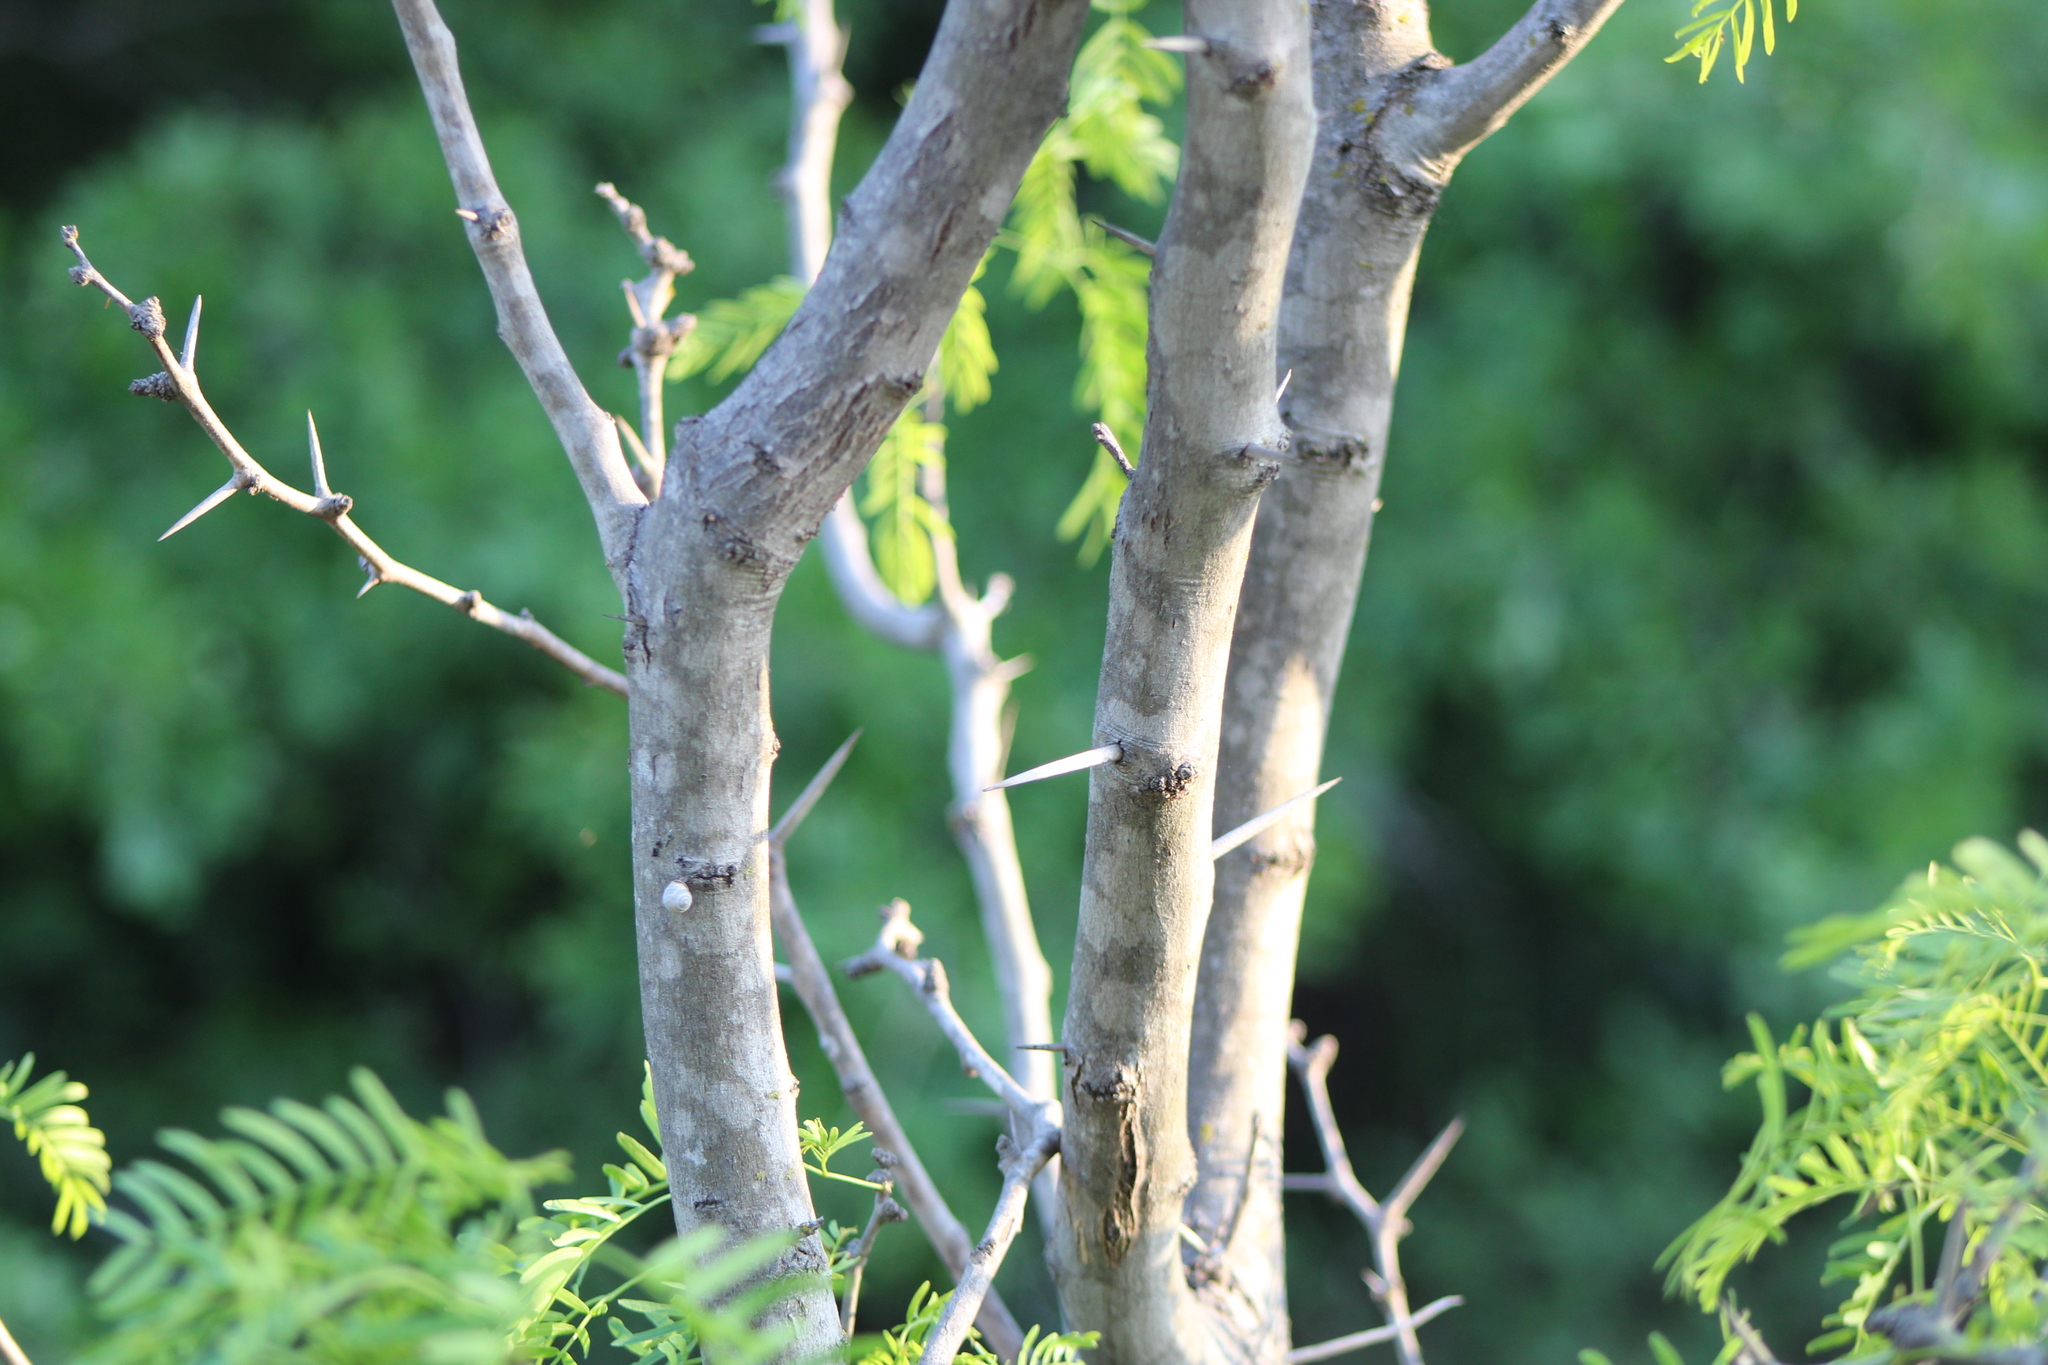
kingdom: Plantae
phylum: Tracheophyta
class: Magnoliopsida
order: Fabales
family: Fabaceae
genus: Prosopis
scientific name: Prosopis glandulosa
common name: Honey mesquite
